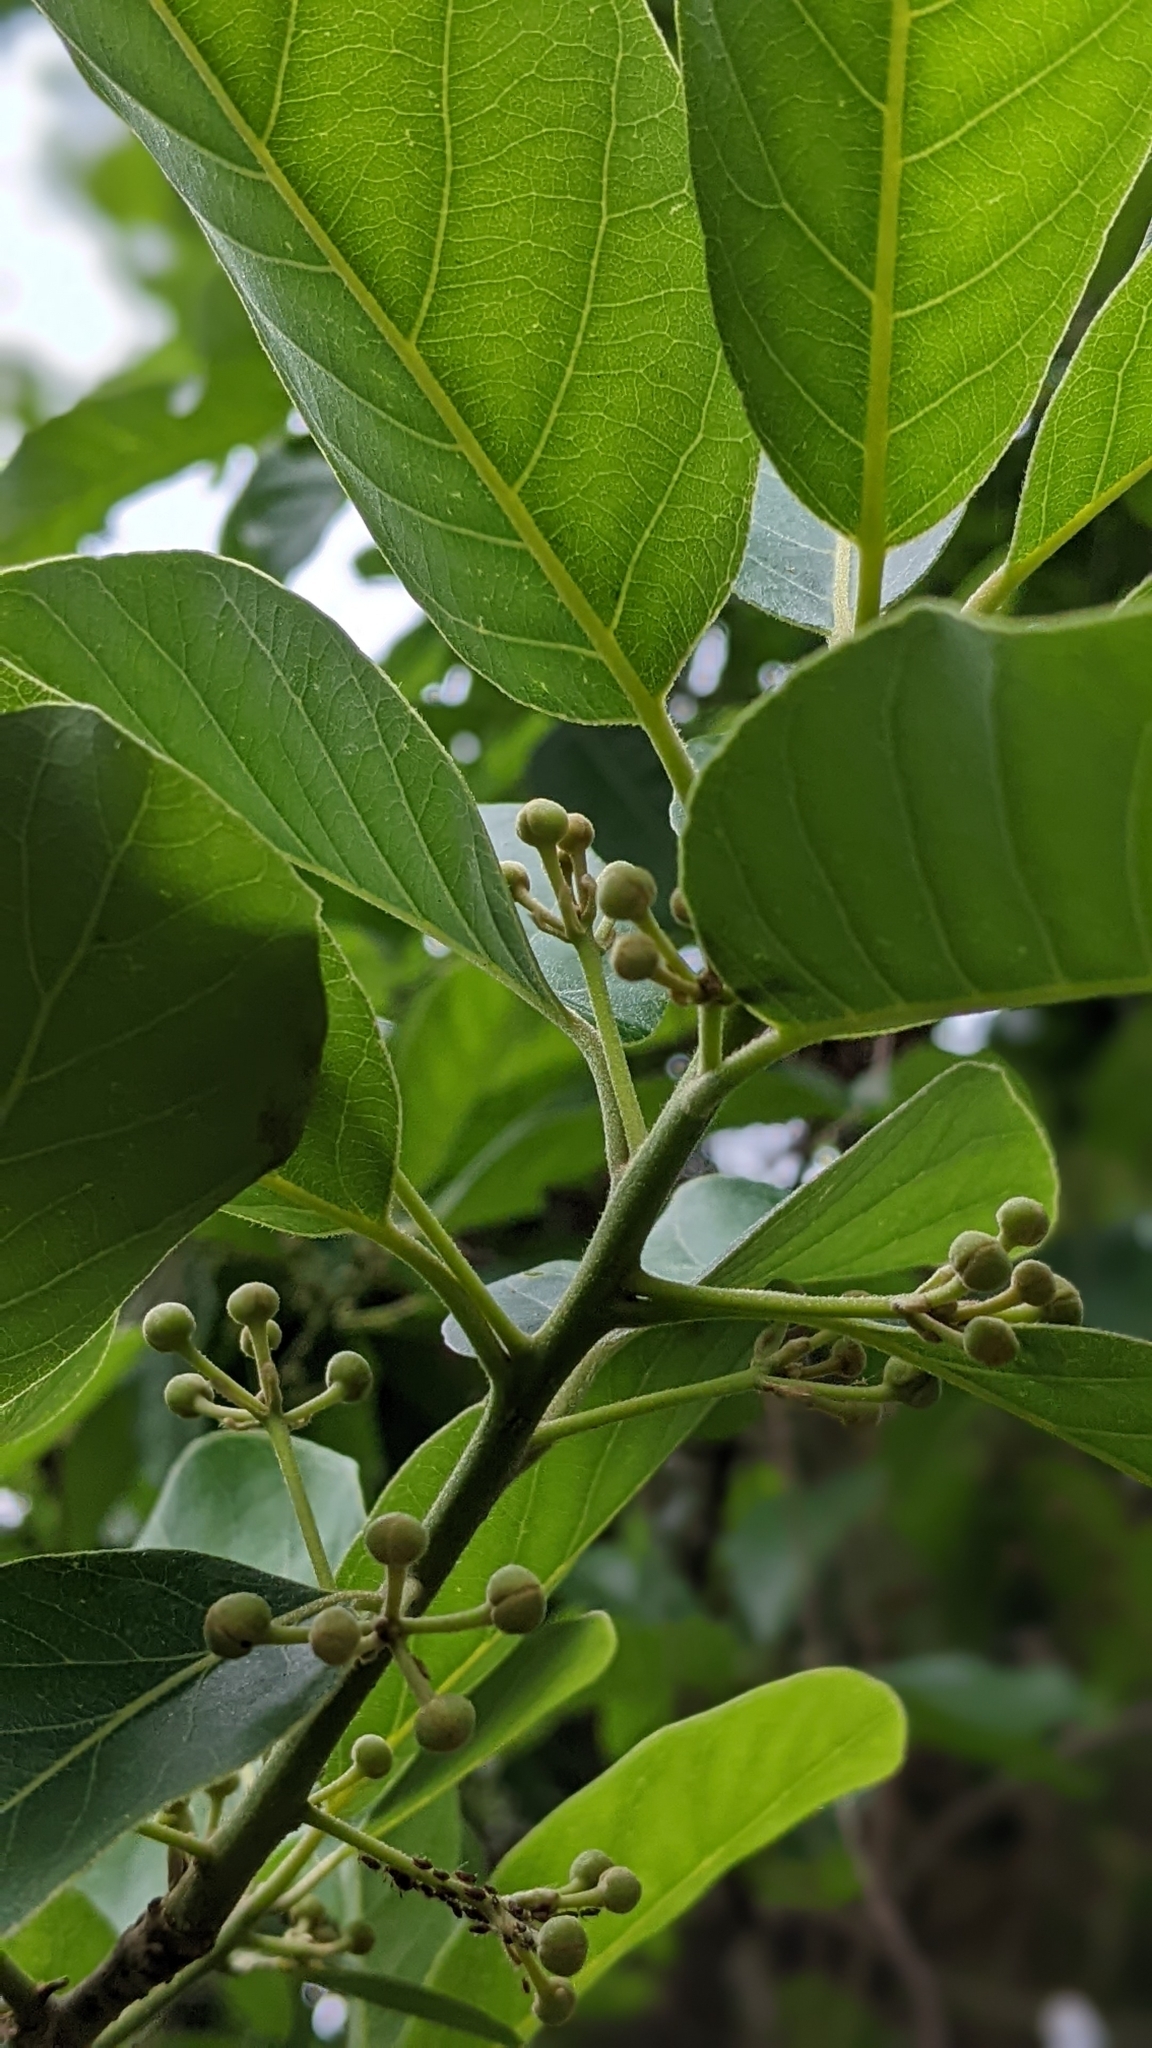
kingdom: Plantae
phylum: Tracheophyta
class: Magnoliopsida
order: Laurales
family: Lauraceae
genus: Litsea
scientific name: Litsea glutinosa
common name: Indian-laurel
